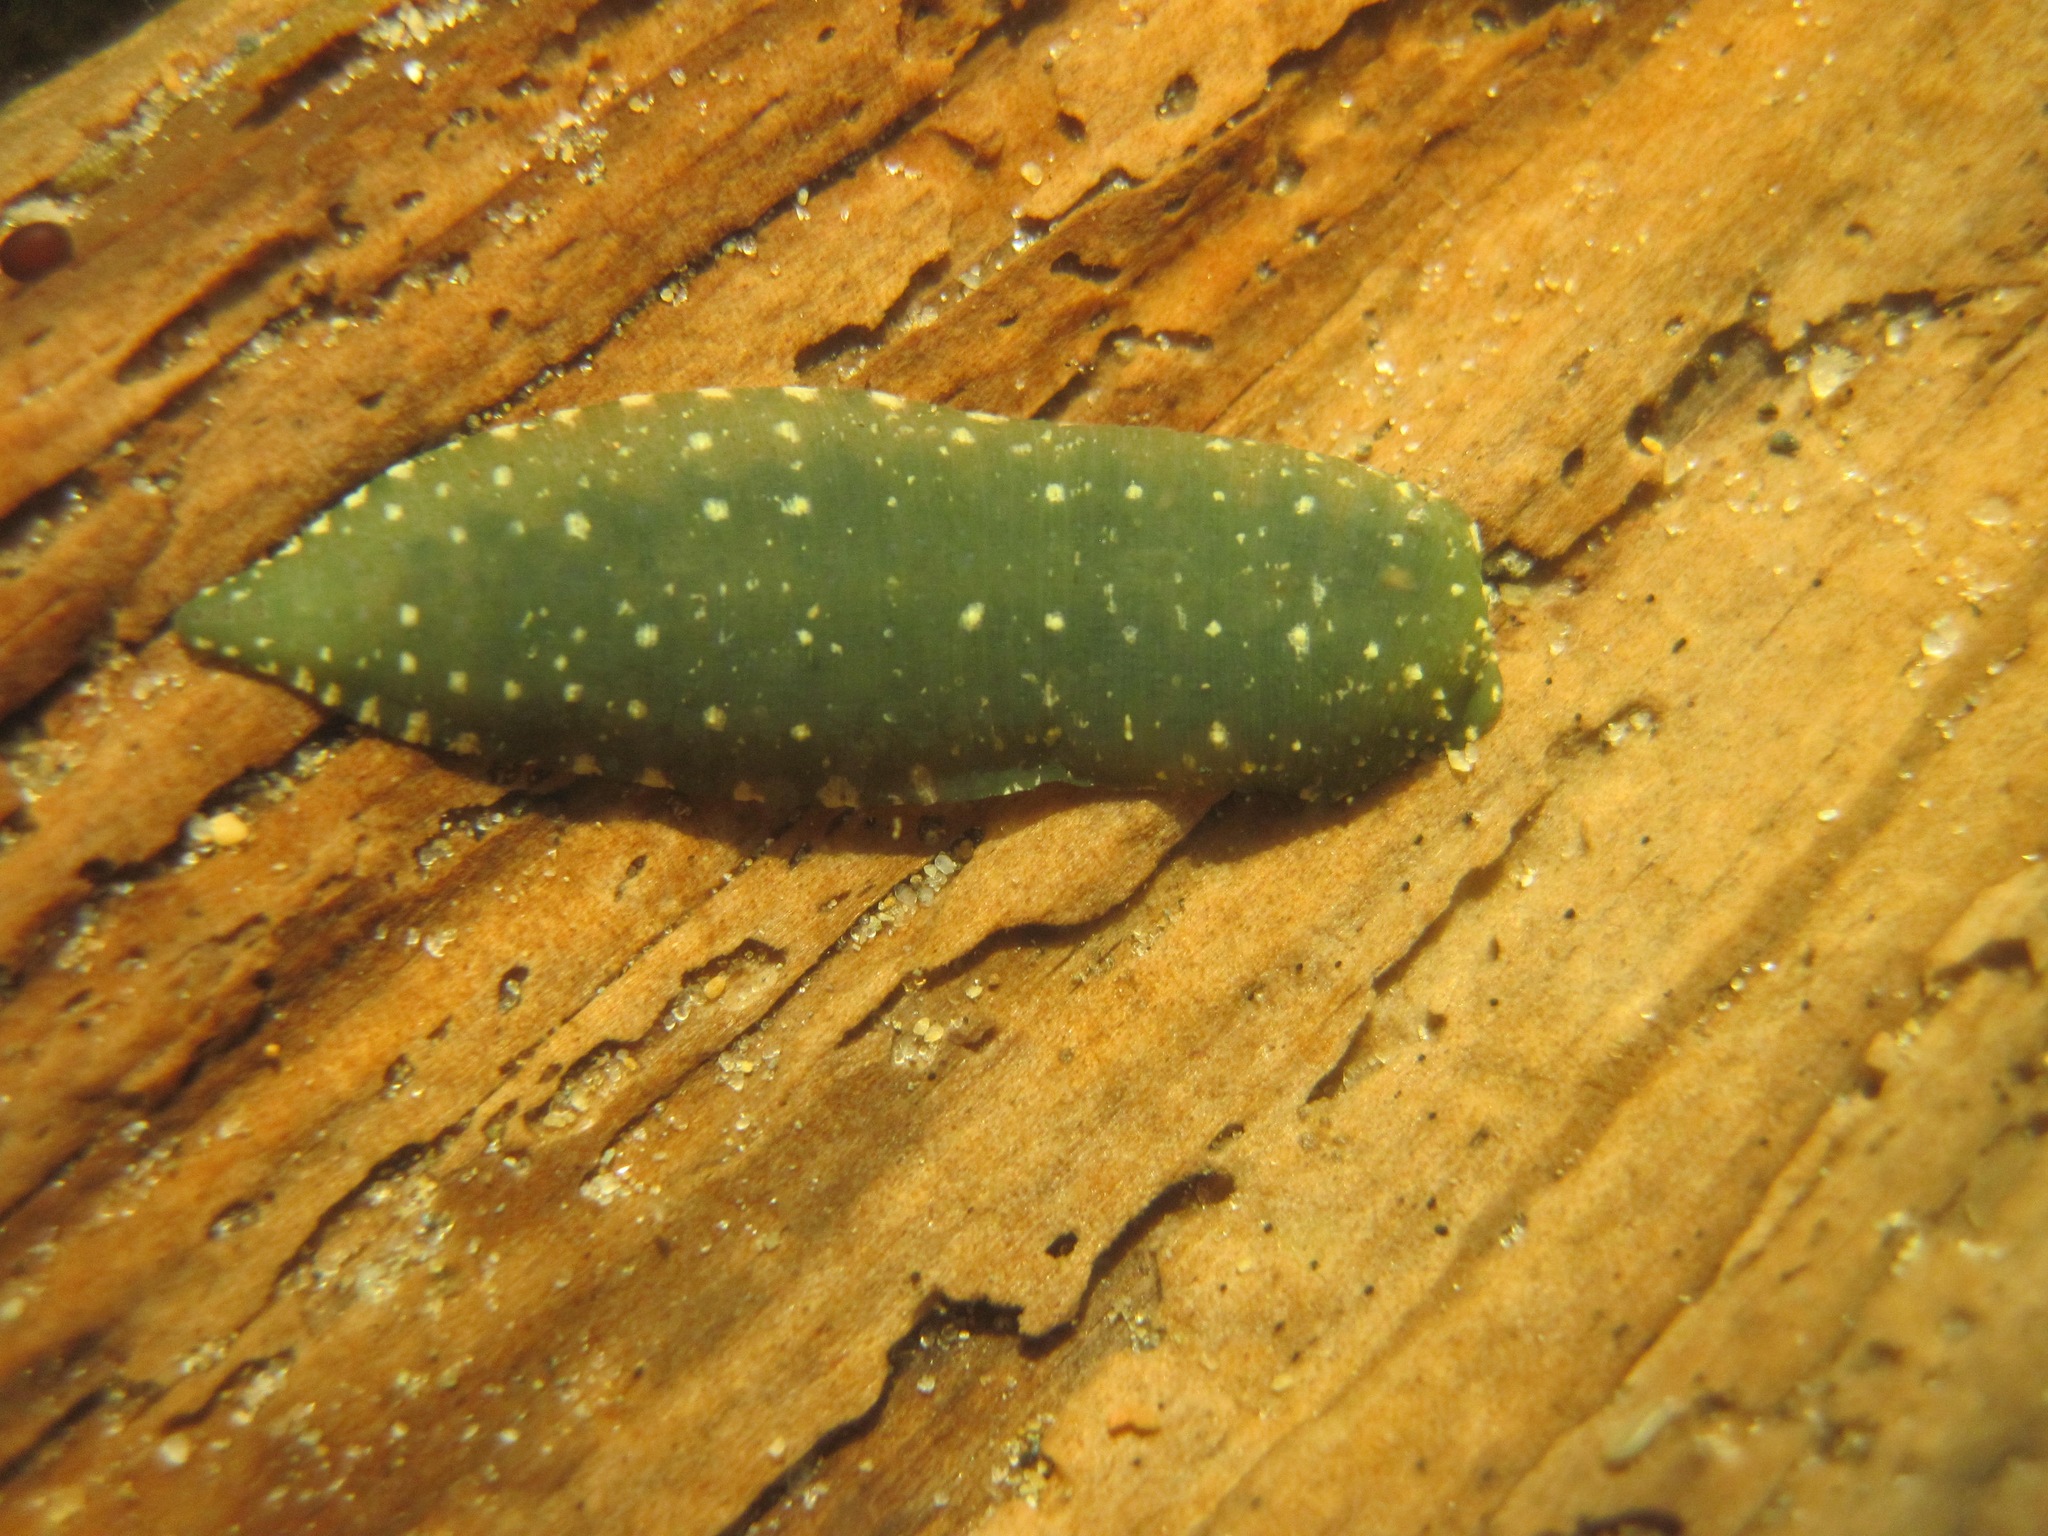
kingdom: Animalia
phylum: Annelida
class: Clitellata
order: Rhynchobdellida
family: Glossiphoniidae
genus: Theromyzon
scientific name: Theromyzon tessulatum
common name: Duck leech
